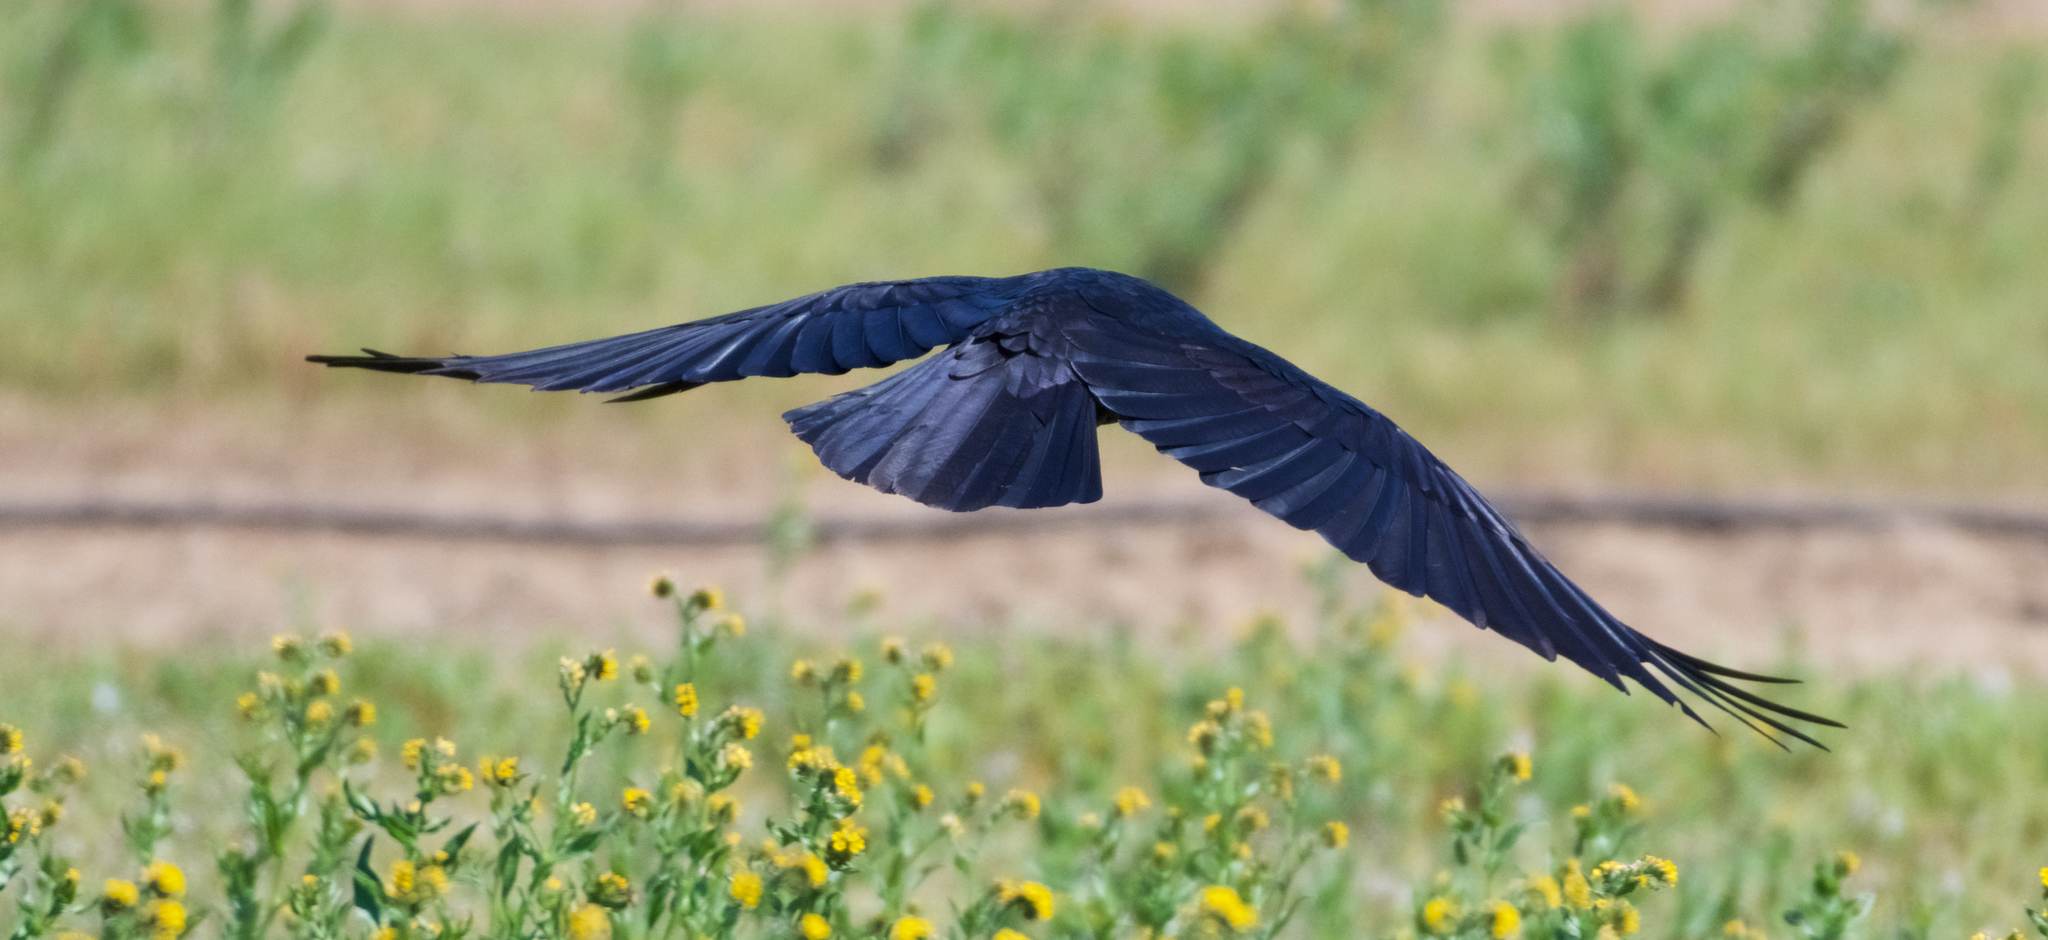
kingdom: Animalia
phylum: Chordata
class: Aves
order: Passeriformes
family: Corvidae
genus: Corvus
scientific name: Corvus brachyrhynchos
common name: American crow
